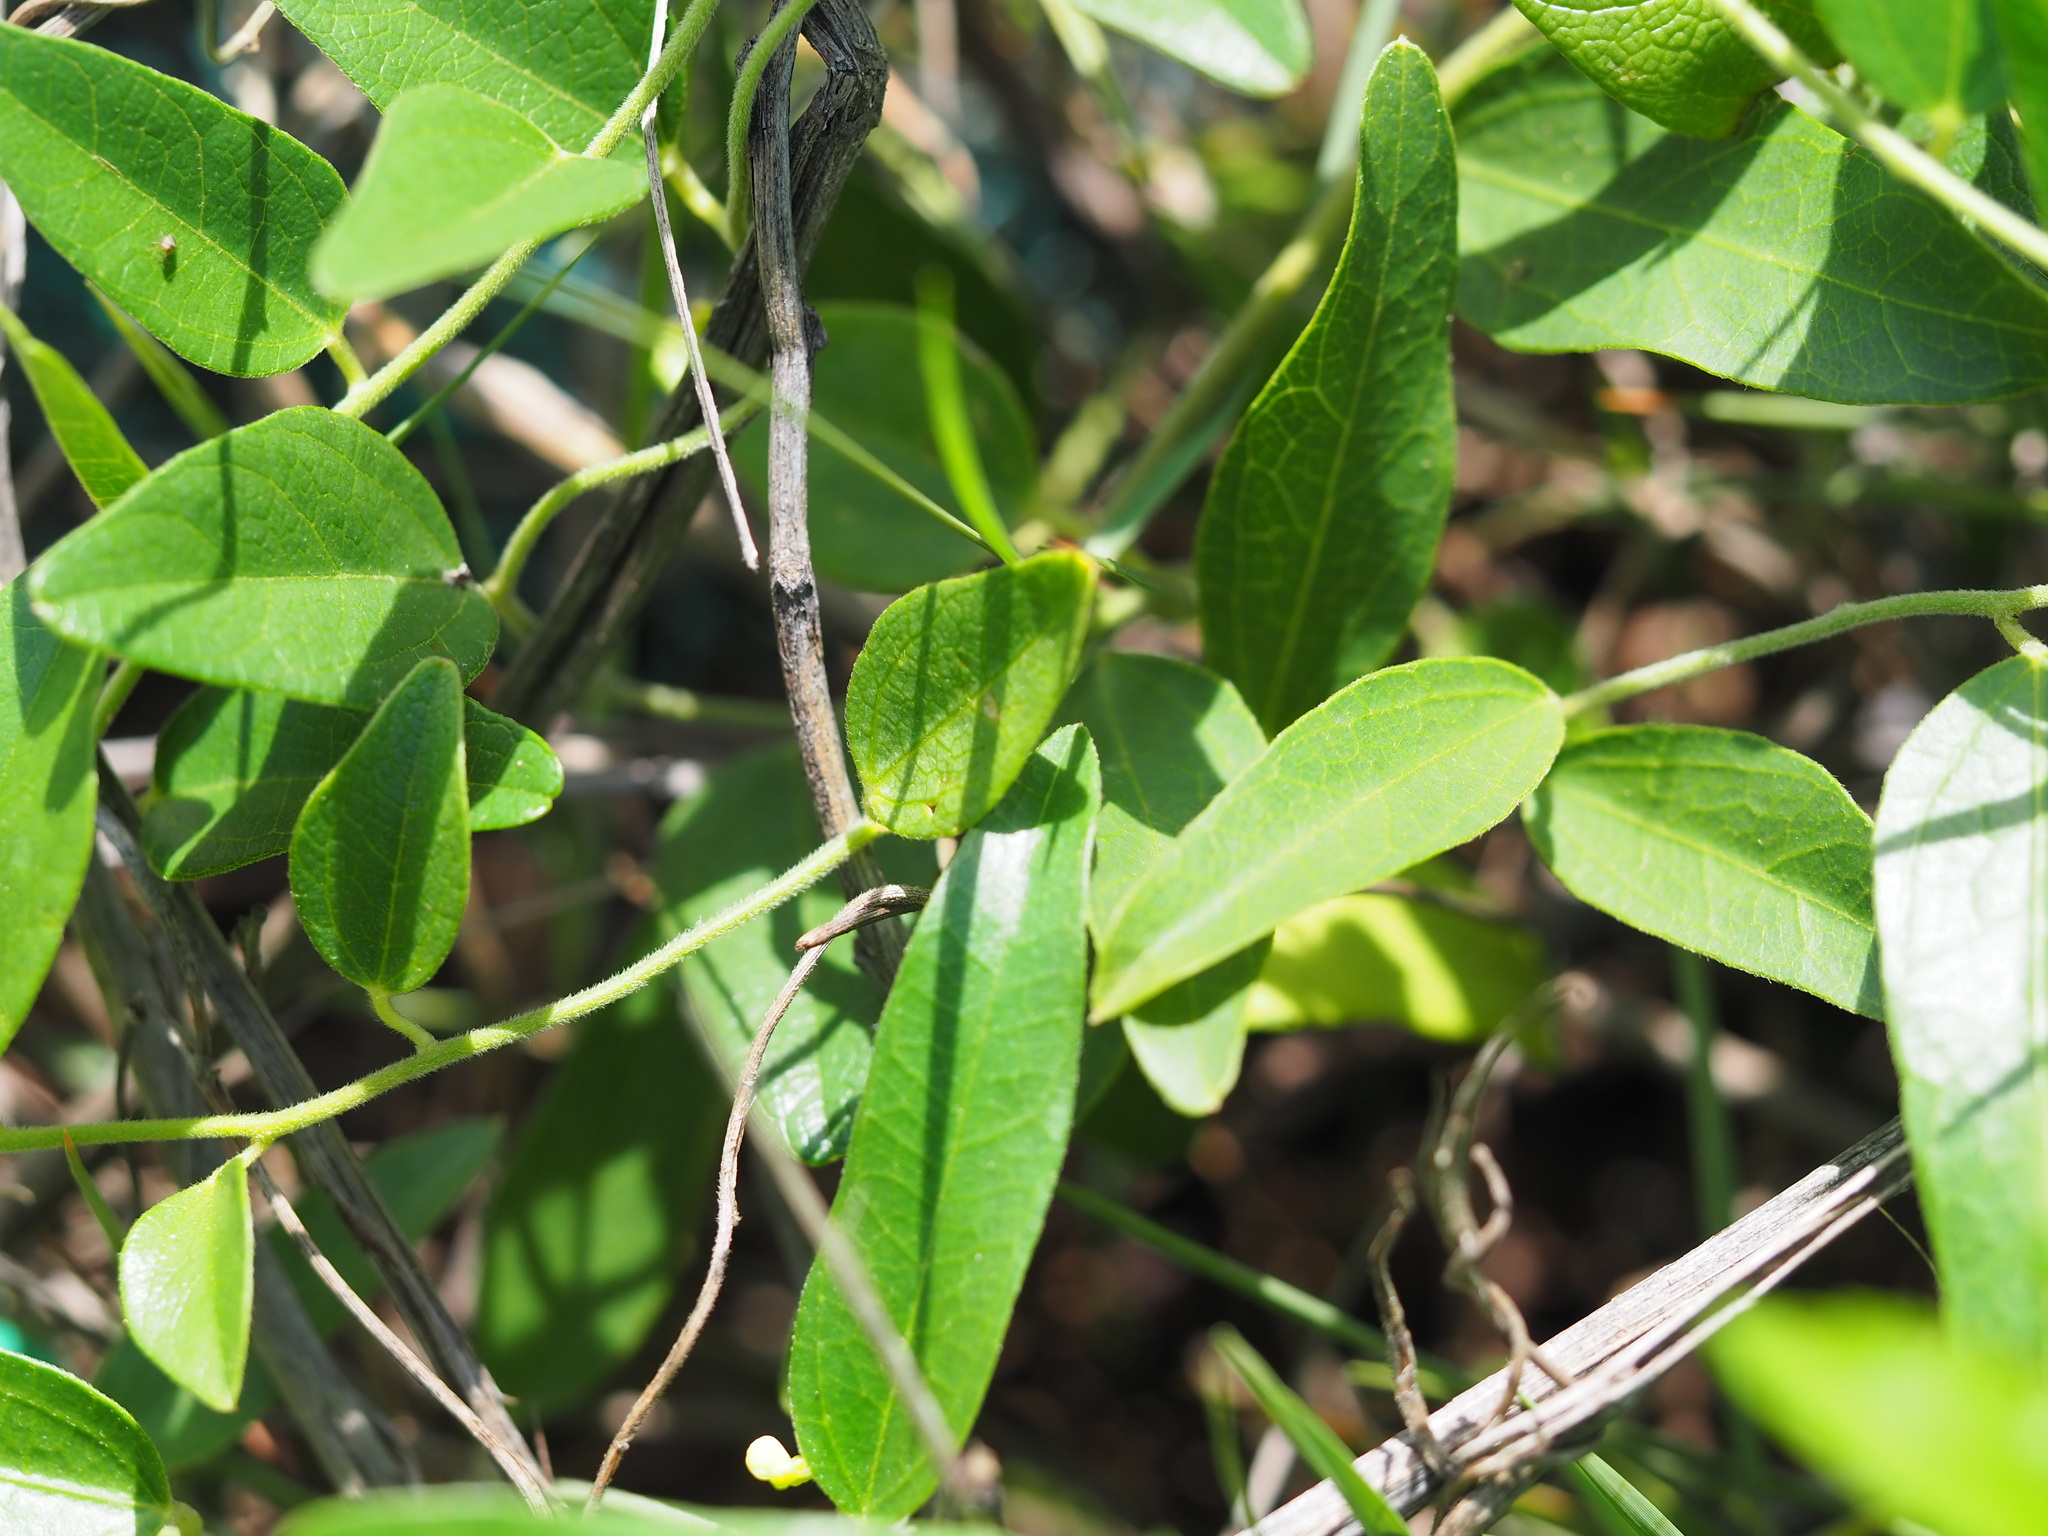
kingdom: Plantae
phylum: Tracheophyta
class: Magnoliopsida
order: Ranunculales
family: Menispermaceae
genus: Cocculus
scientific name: Cocculus orbiculatus
